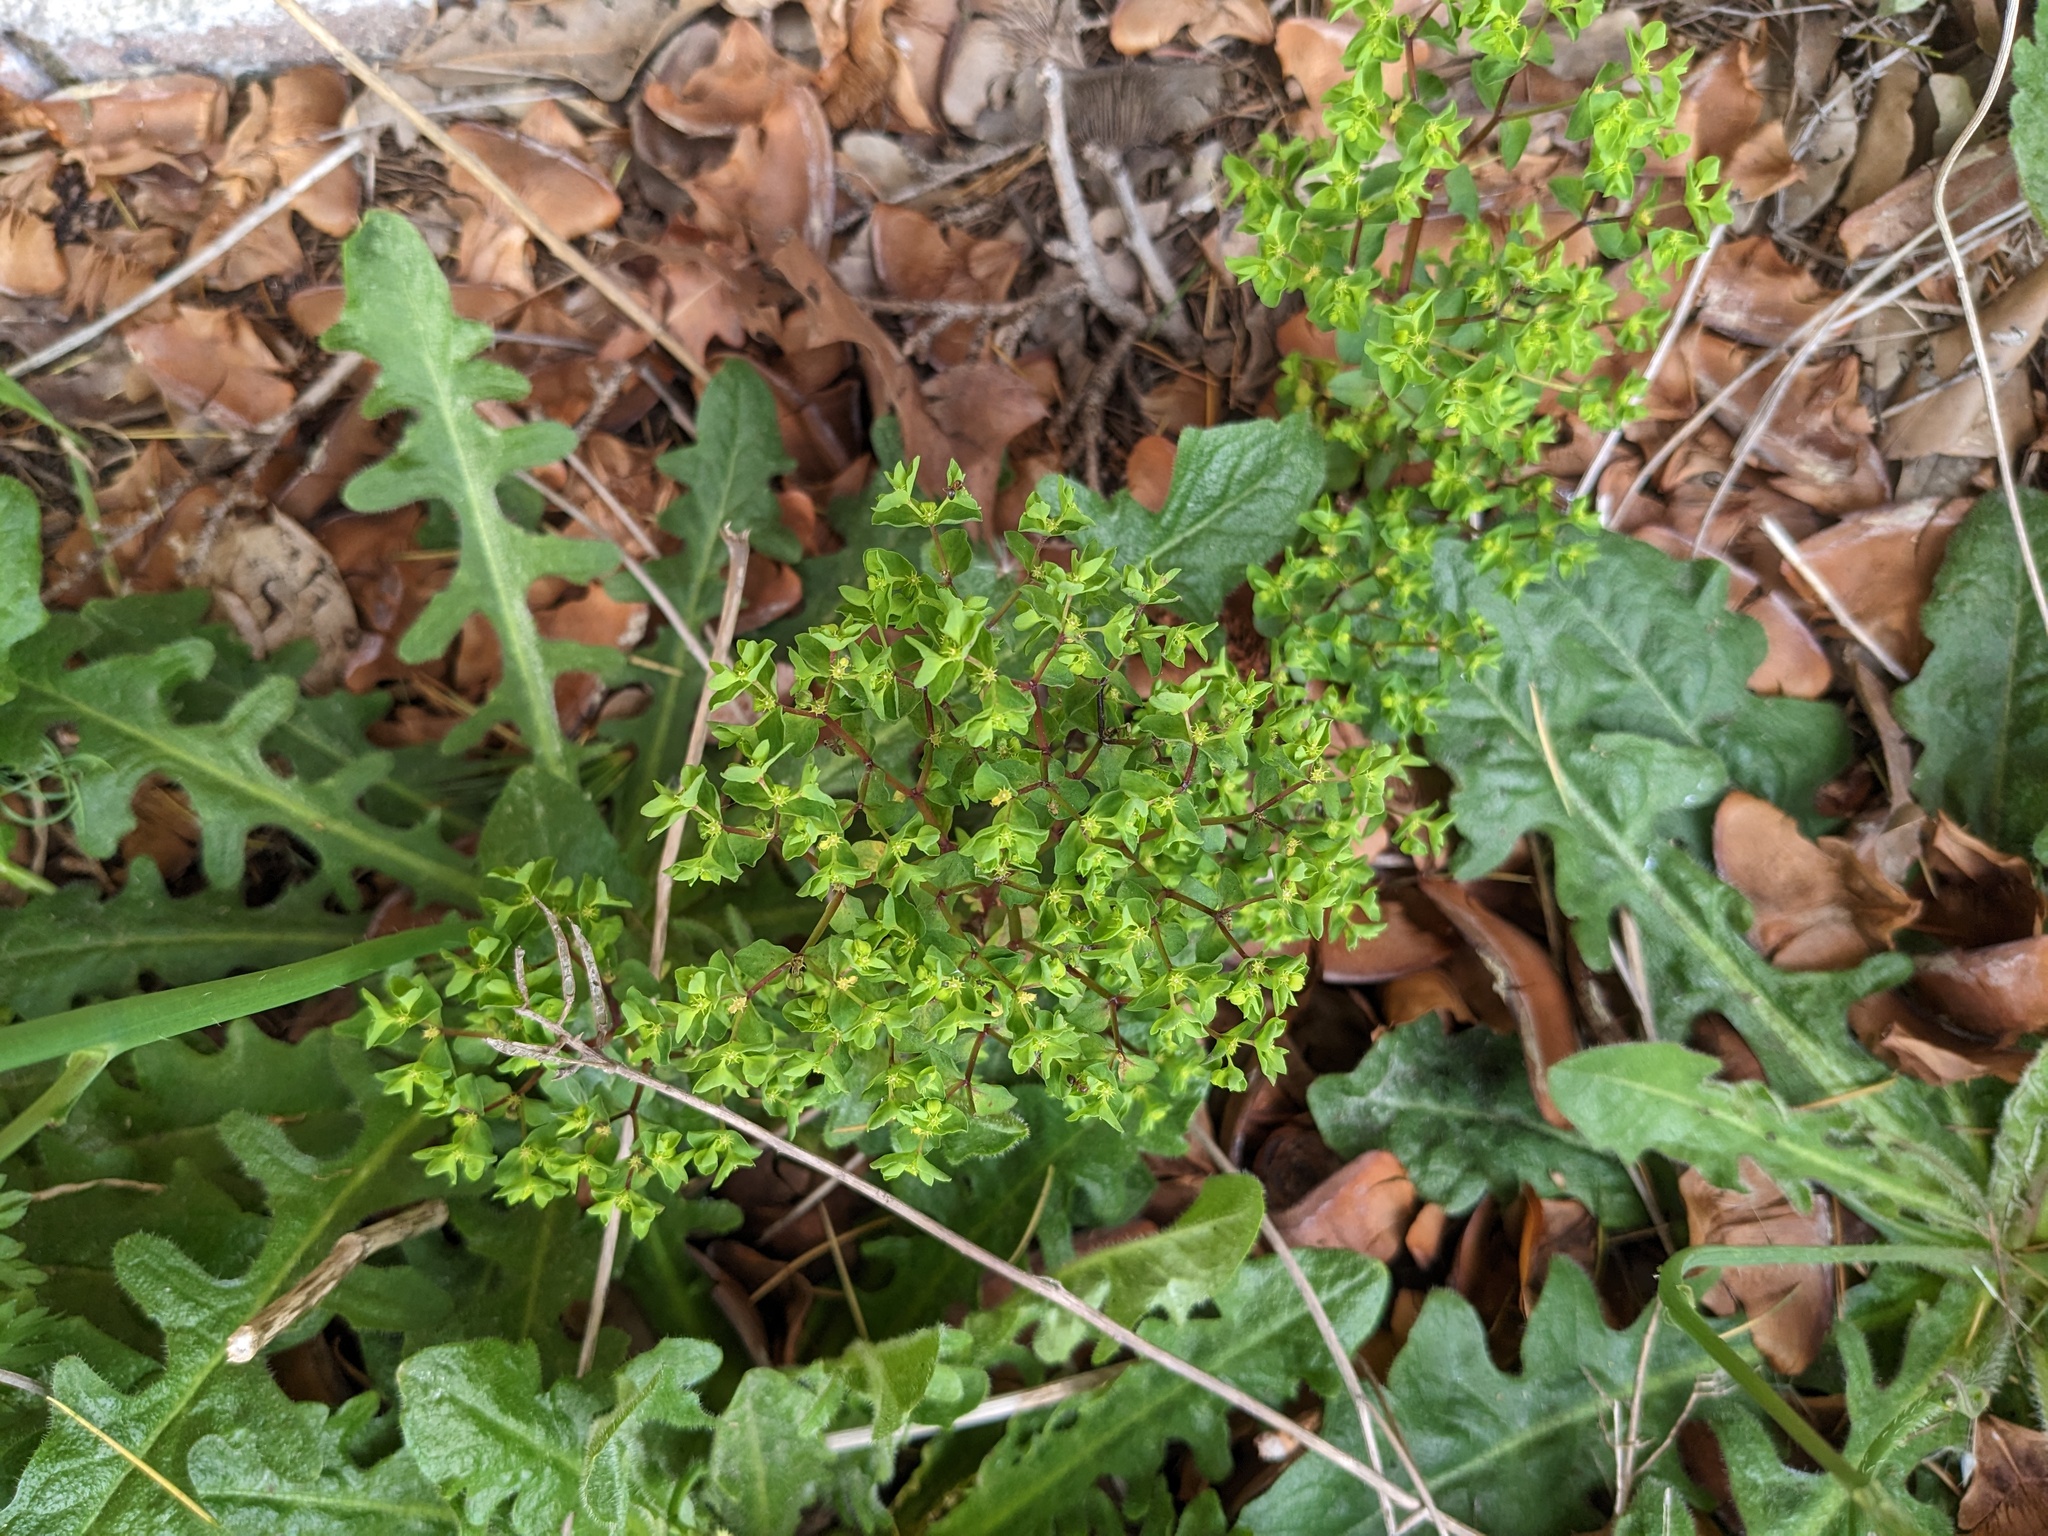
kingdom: Plantae
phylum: Tracheophyta
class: Magnoliopsida
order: Malpighiales
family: Euphorbiaceae
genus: Euphorbia
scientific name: Euphorbia peplus
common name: Petty spurge
